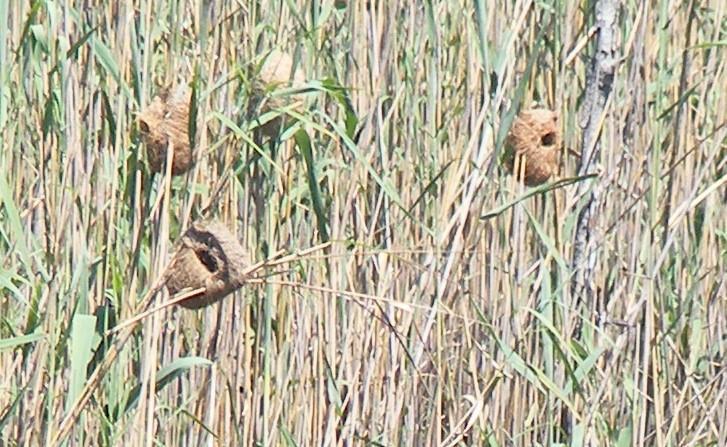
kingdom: Animalia
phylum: Chordata
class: Aves
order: Passeriformes
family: Ploceidae
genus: Amblyospiza
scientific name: Amblyospiza albifrons
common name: Thick-billed weaver
